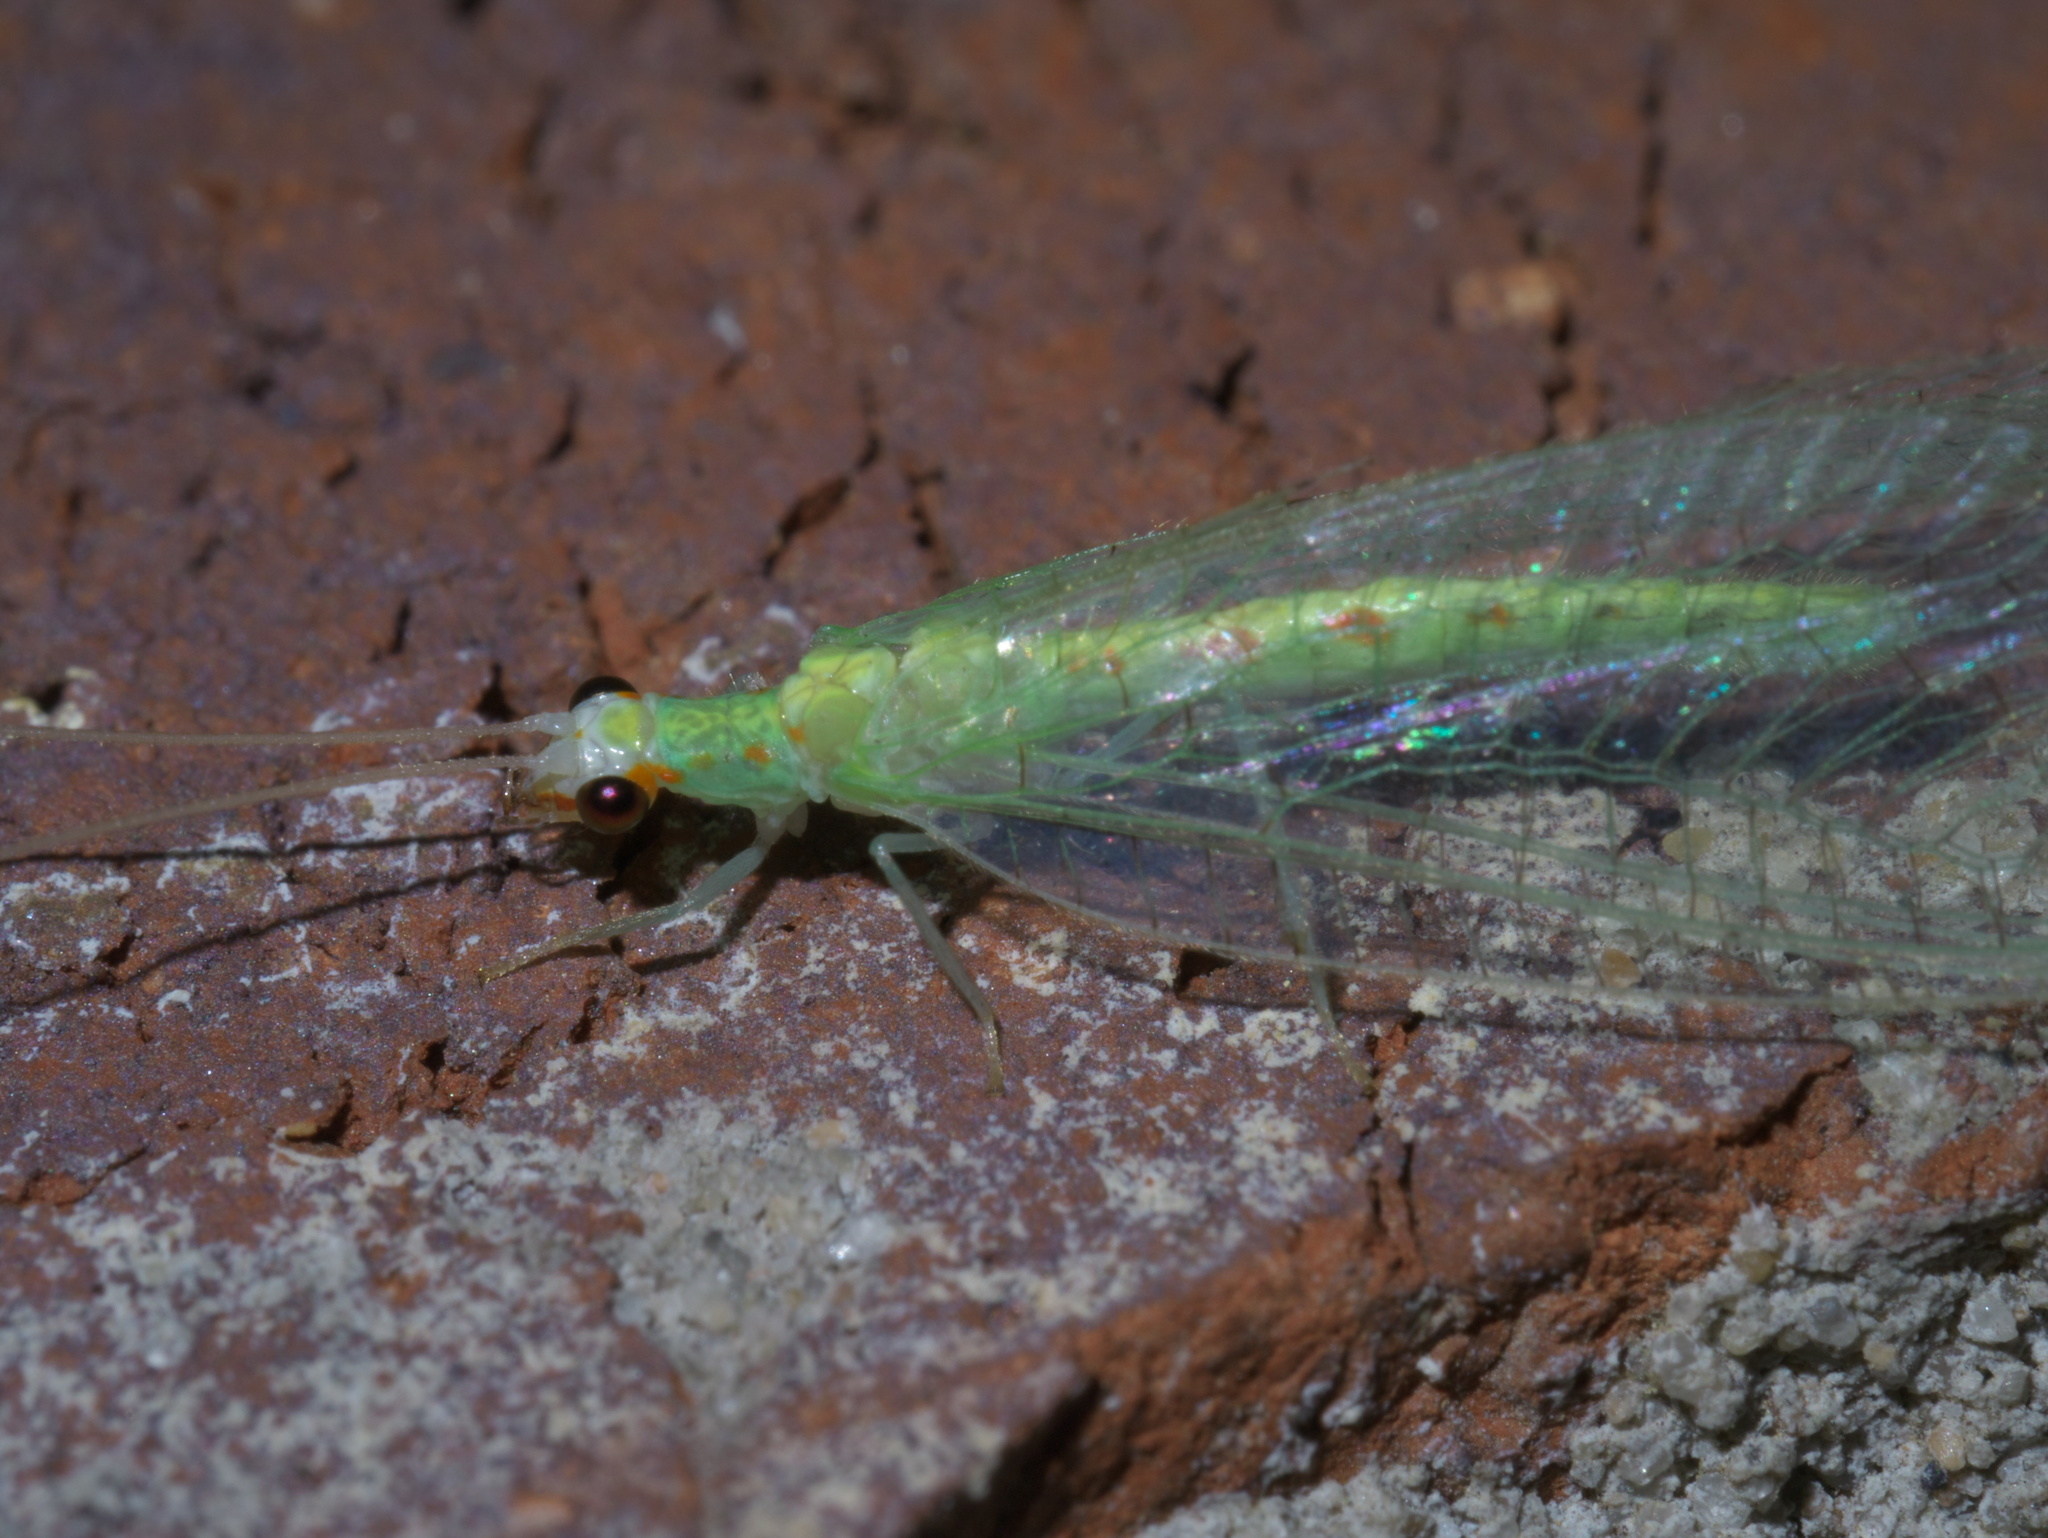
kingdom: Animalia
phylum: Arthropoda
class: Insecta
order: Neuroptera
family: Chrysopidae
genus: Chrysopa
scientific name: Chrysopa quadripunctata
